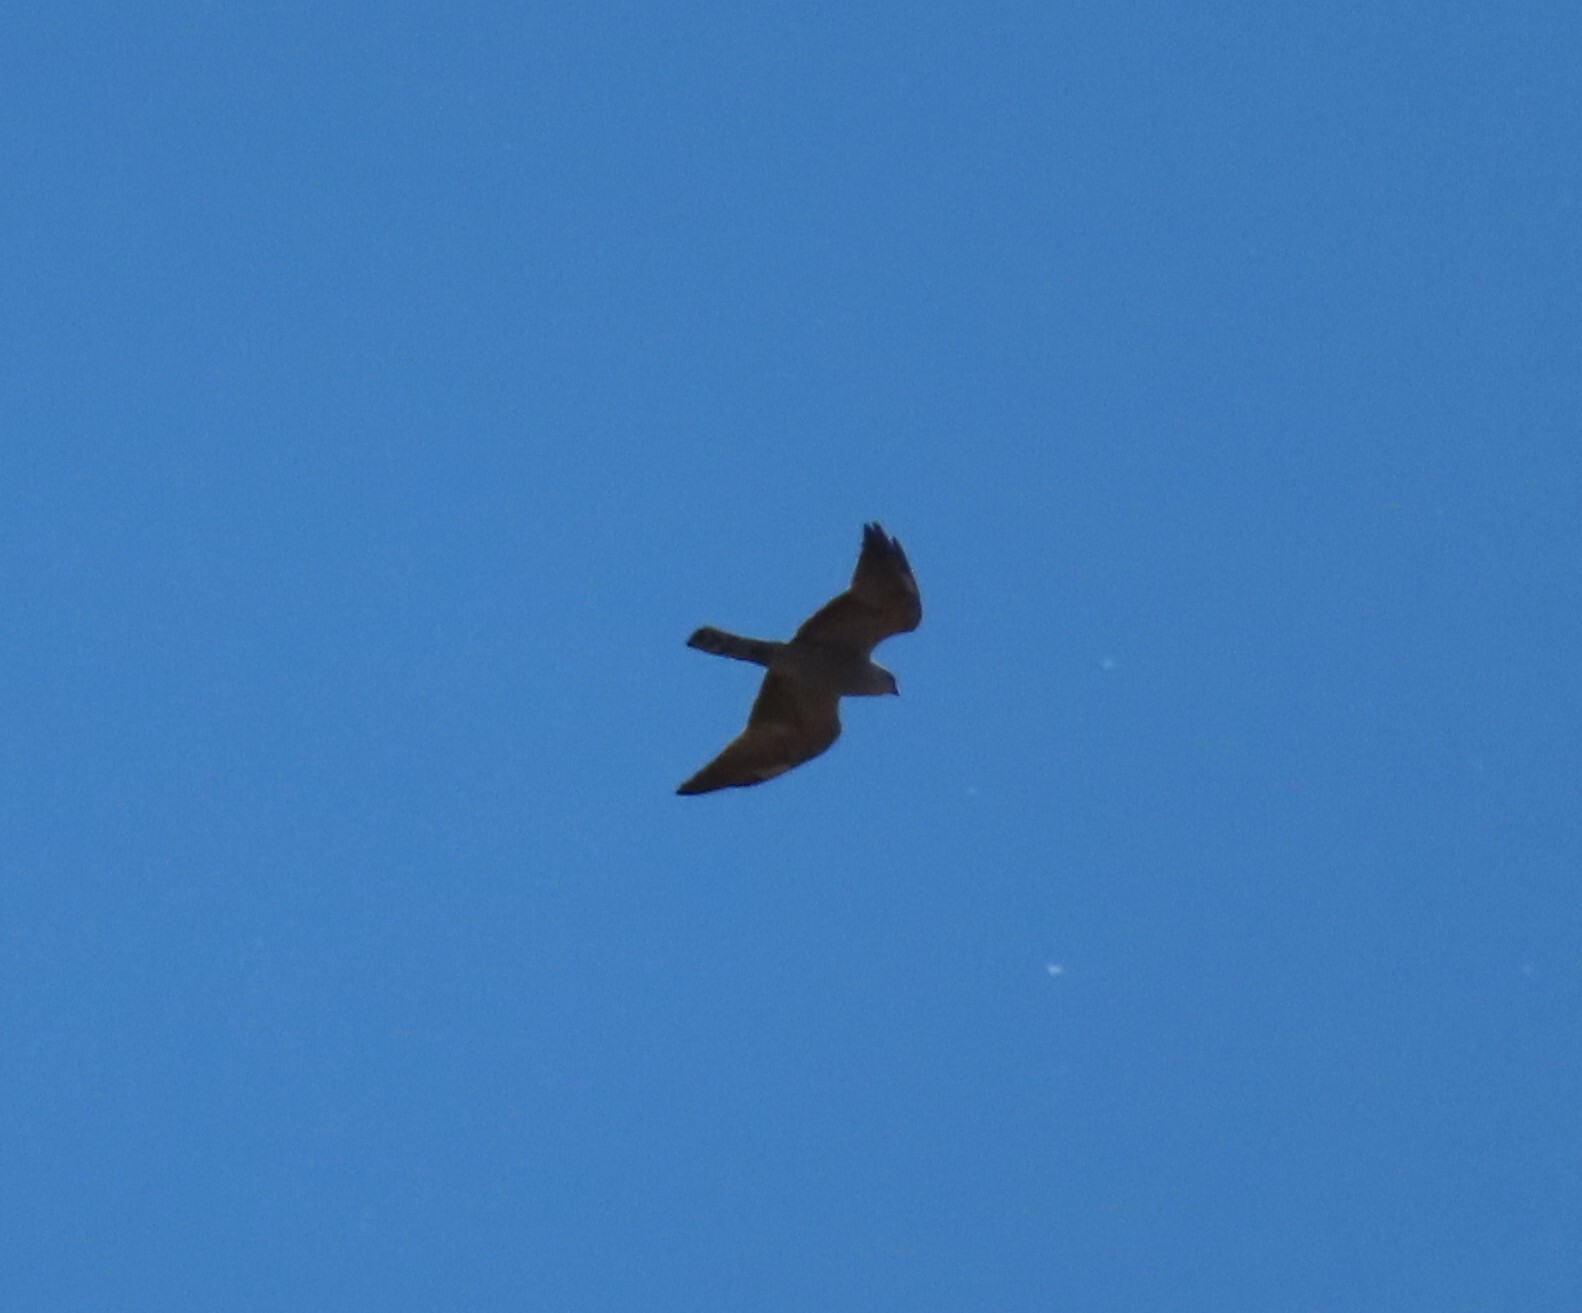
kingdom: Animalia
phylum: Chordata
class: Aves
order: Accipitriformes
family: Accipitridae
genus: Ictinia
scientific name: Ictinia mississippiensis
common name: Mississippi kite
